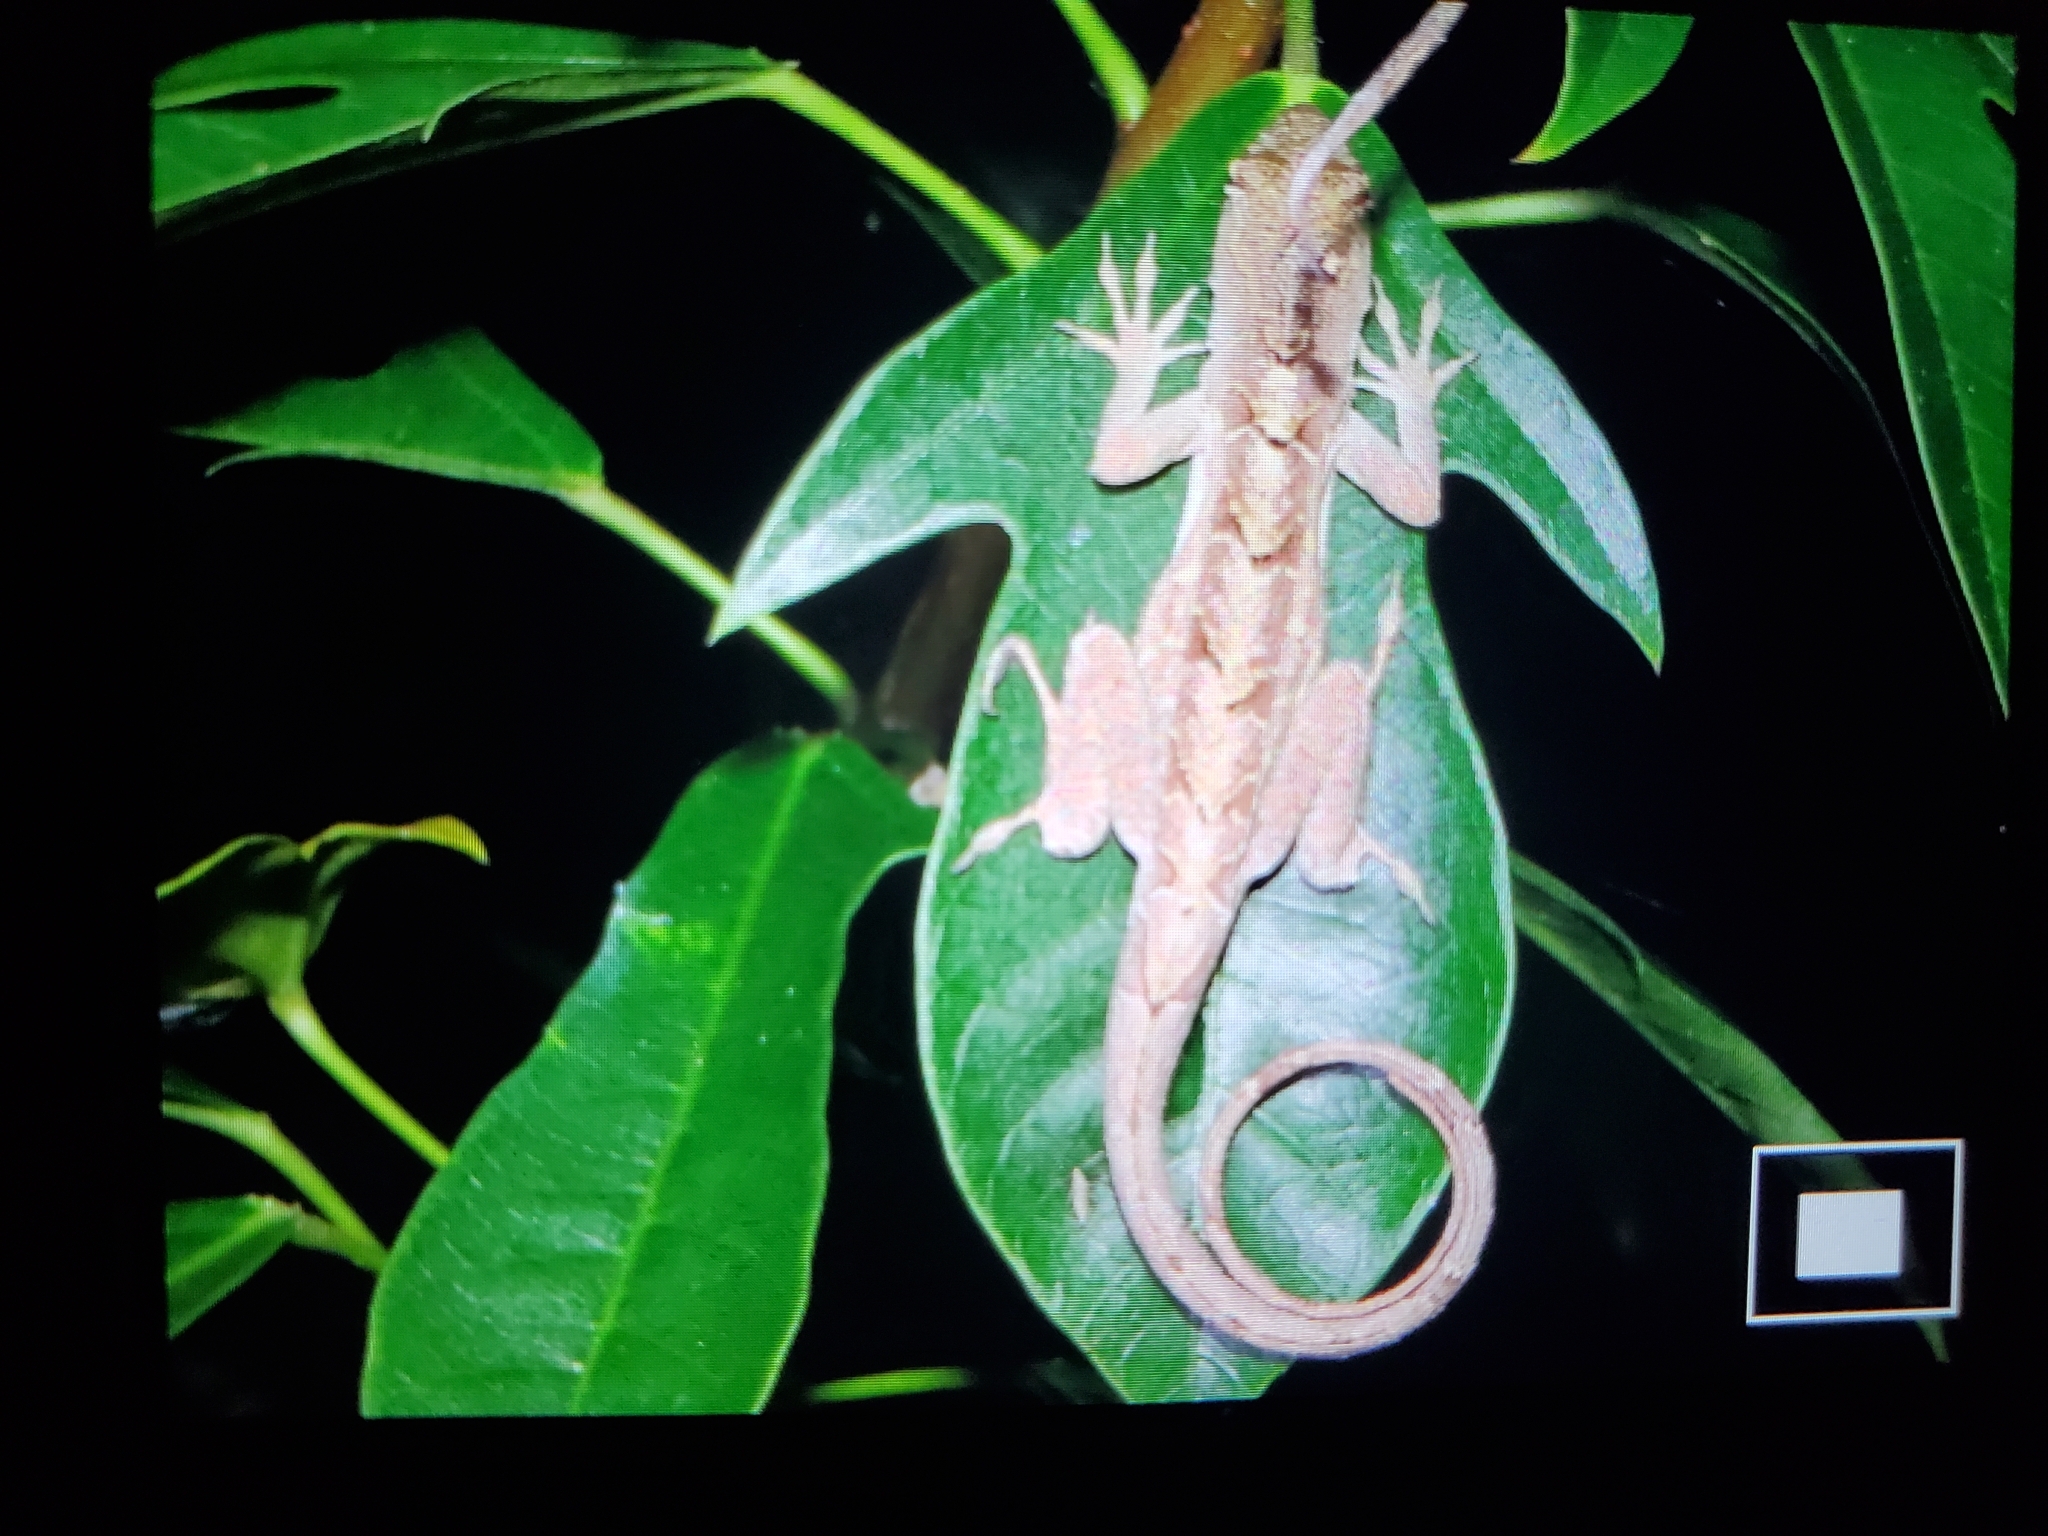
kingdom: Animalia
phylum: Chordata
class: Squamata
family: Dactyloidae
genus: Anolis
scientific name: Anolis sagrei
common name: Brown anole
